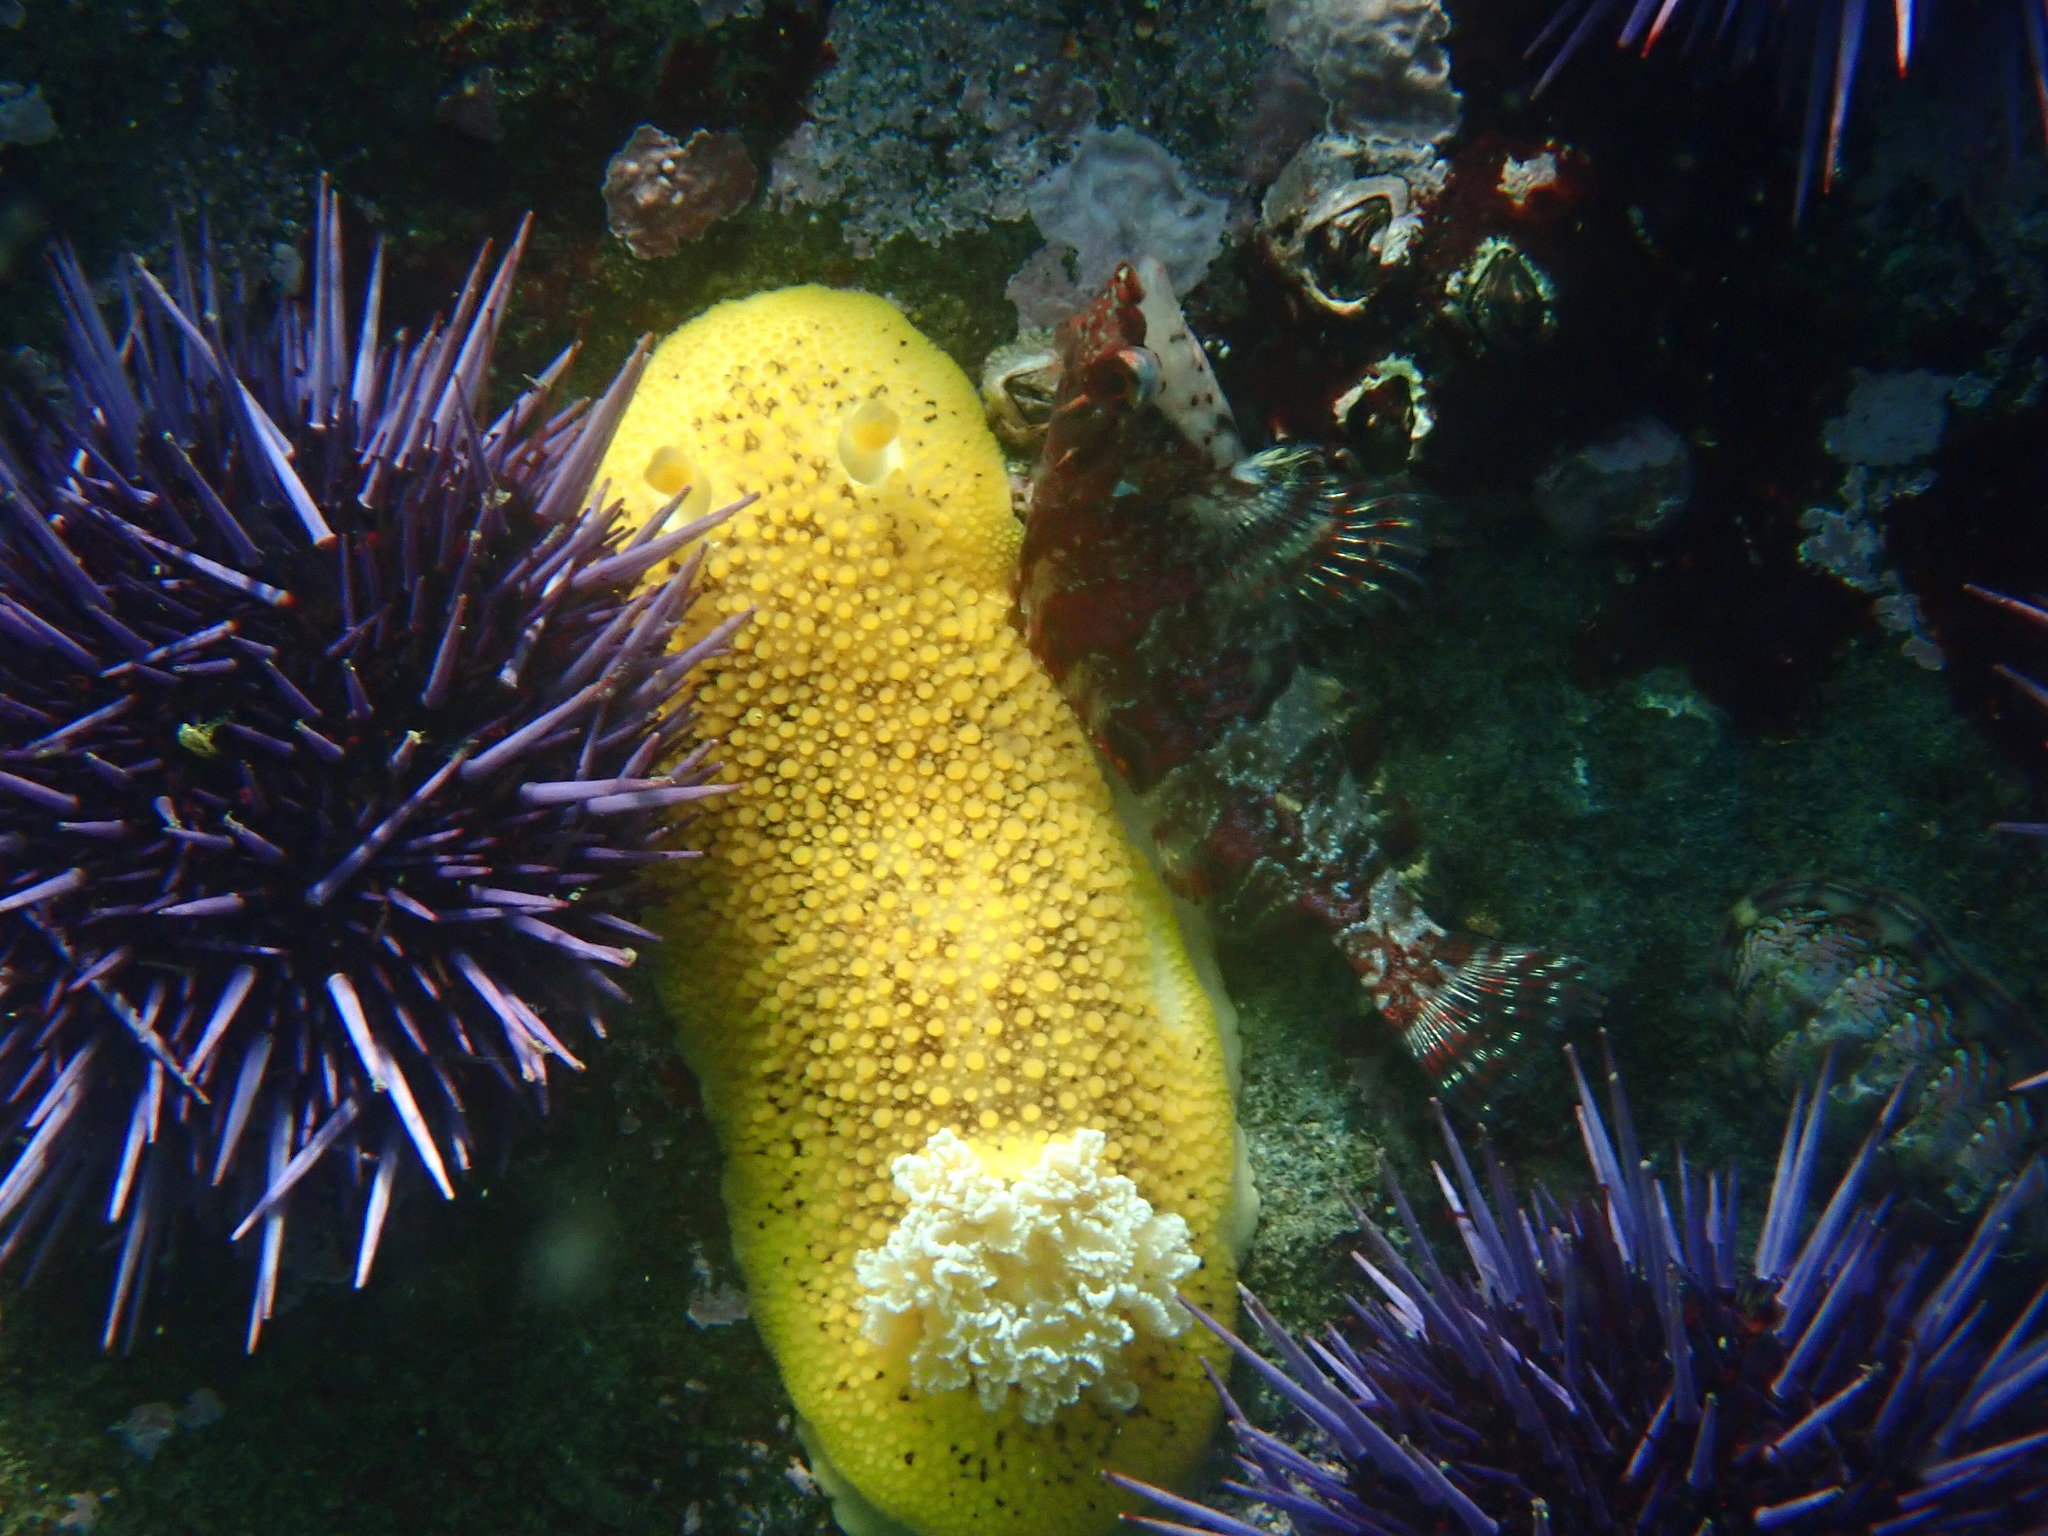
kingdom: Animalia
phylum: Mollusca
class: Gastropoda
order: Nudibranchia
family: Discodorididae
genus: Peltodoris
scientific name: Peltodoris nobilis
